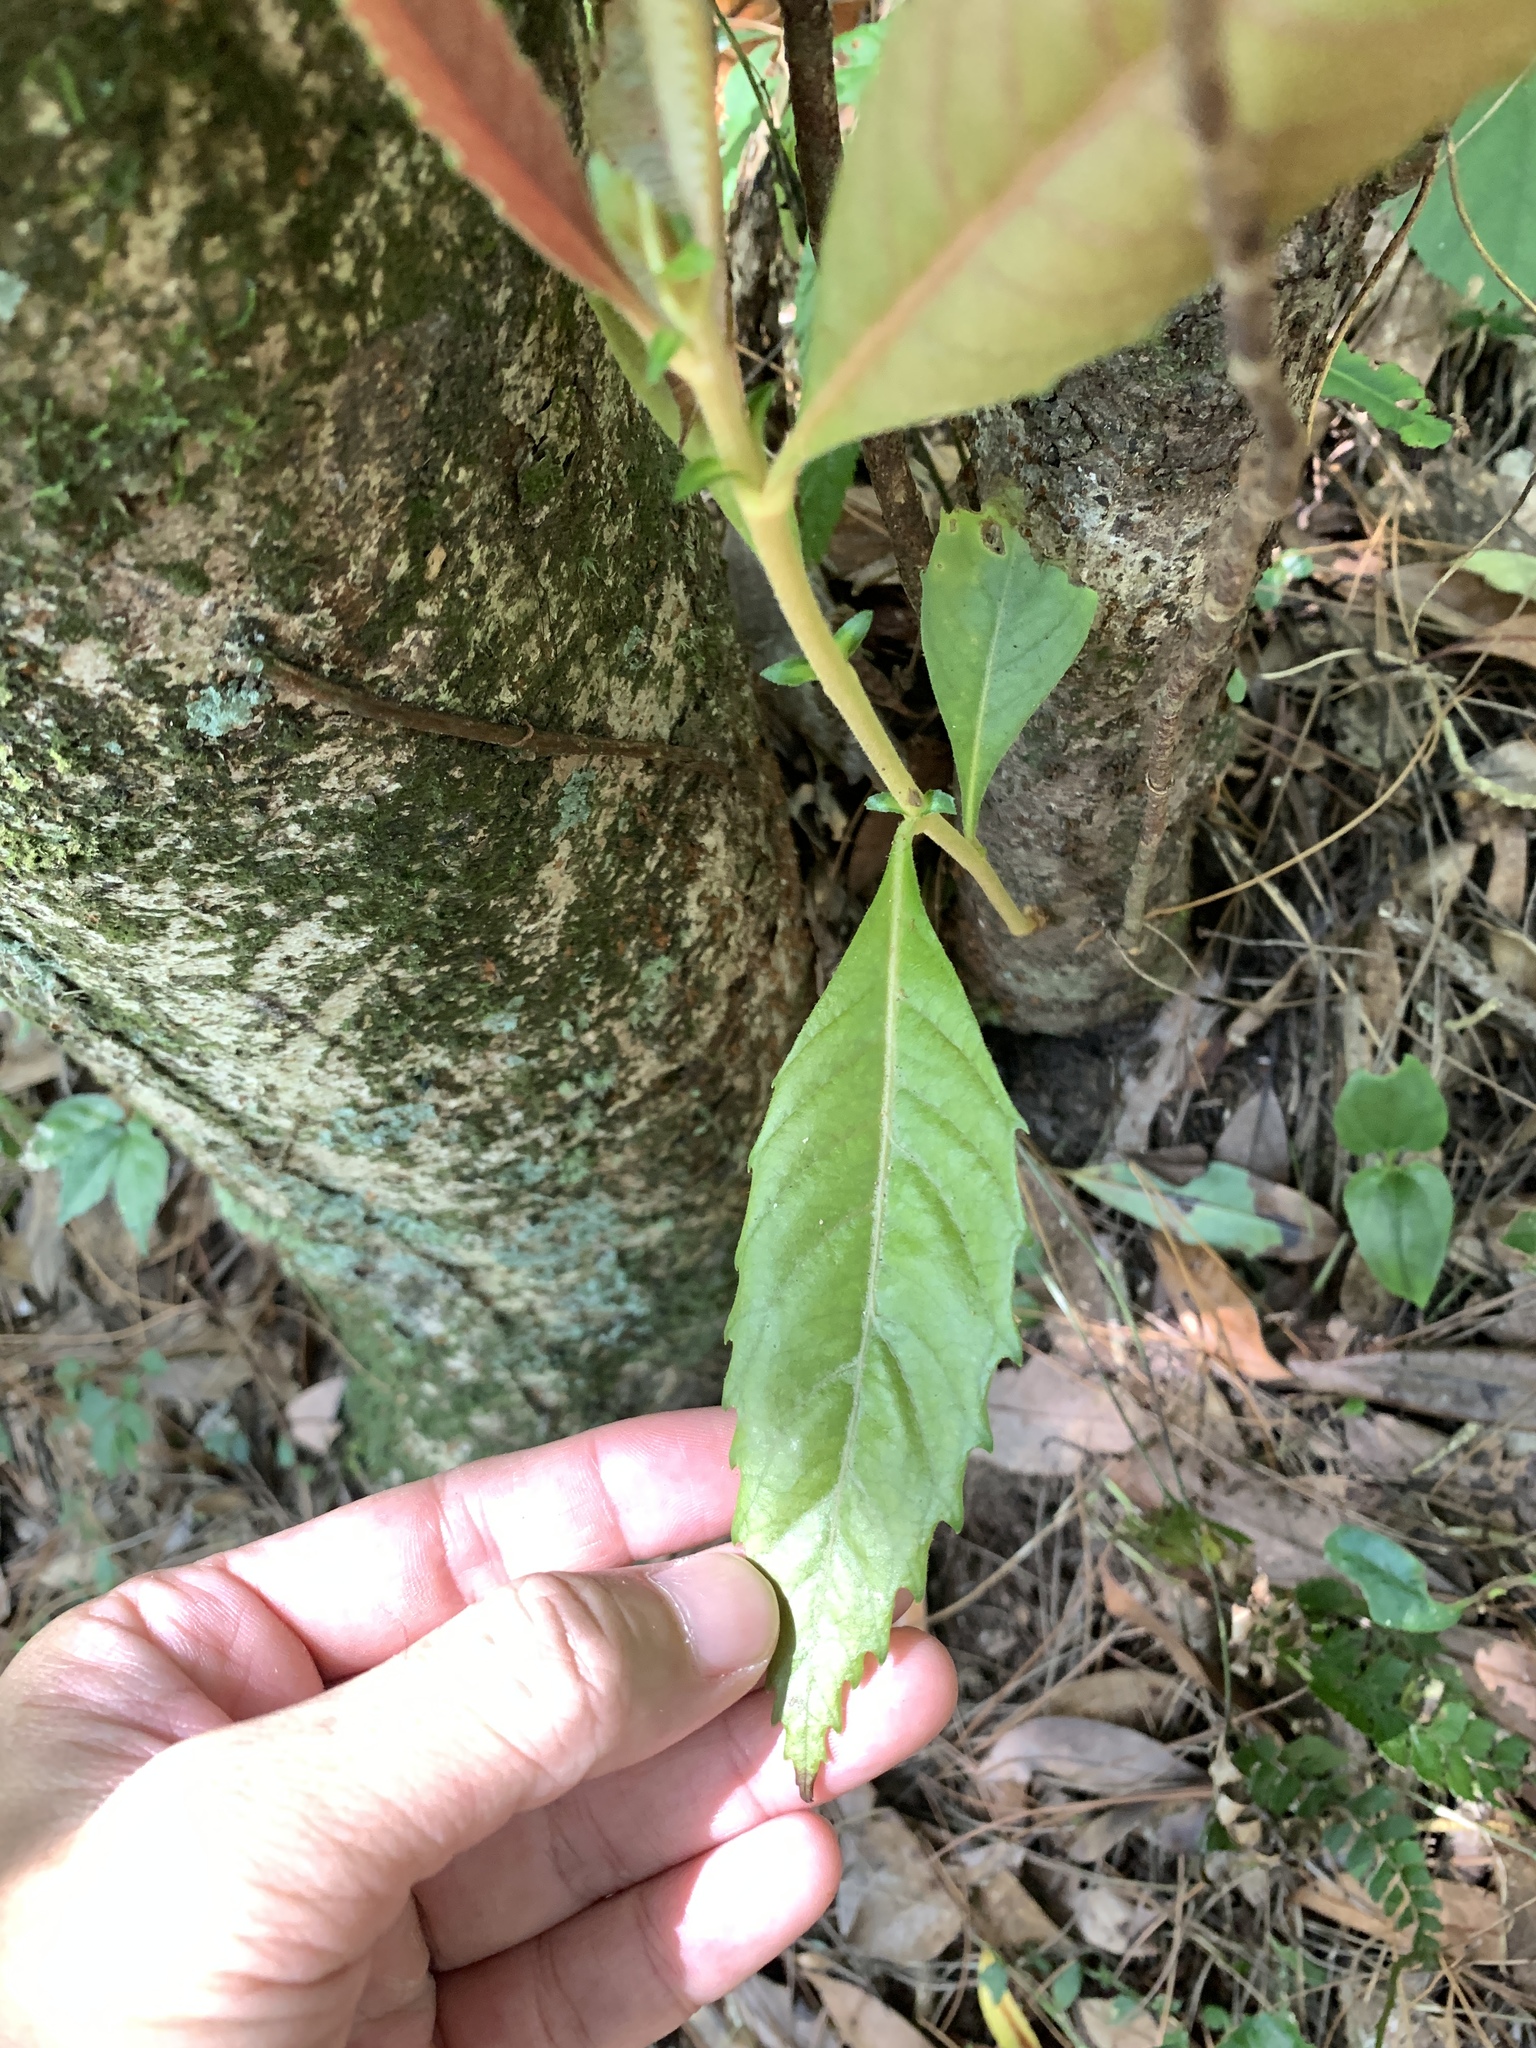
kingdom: Plantae
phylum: Tracheophyta
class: Magnoliopsida
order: Rosales
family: Rosaceae
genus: Rhaphiolepis
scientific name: Rhaphiolepis deflexa
